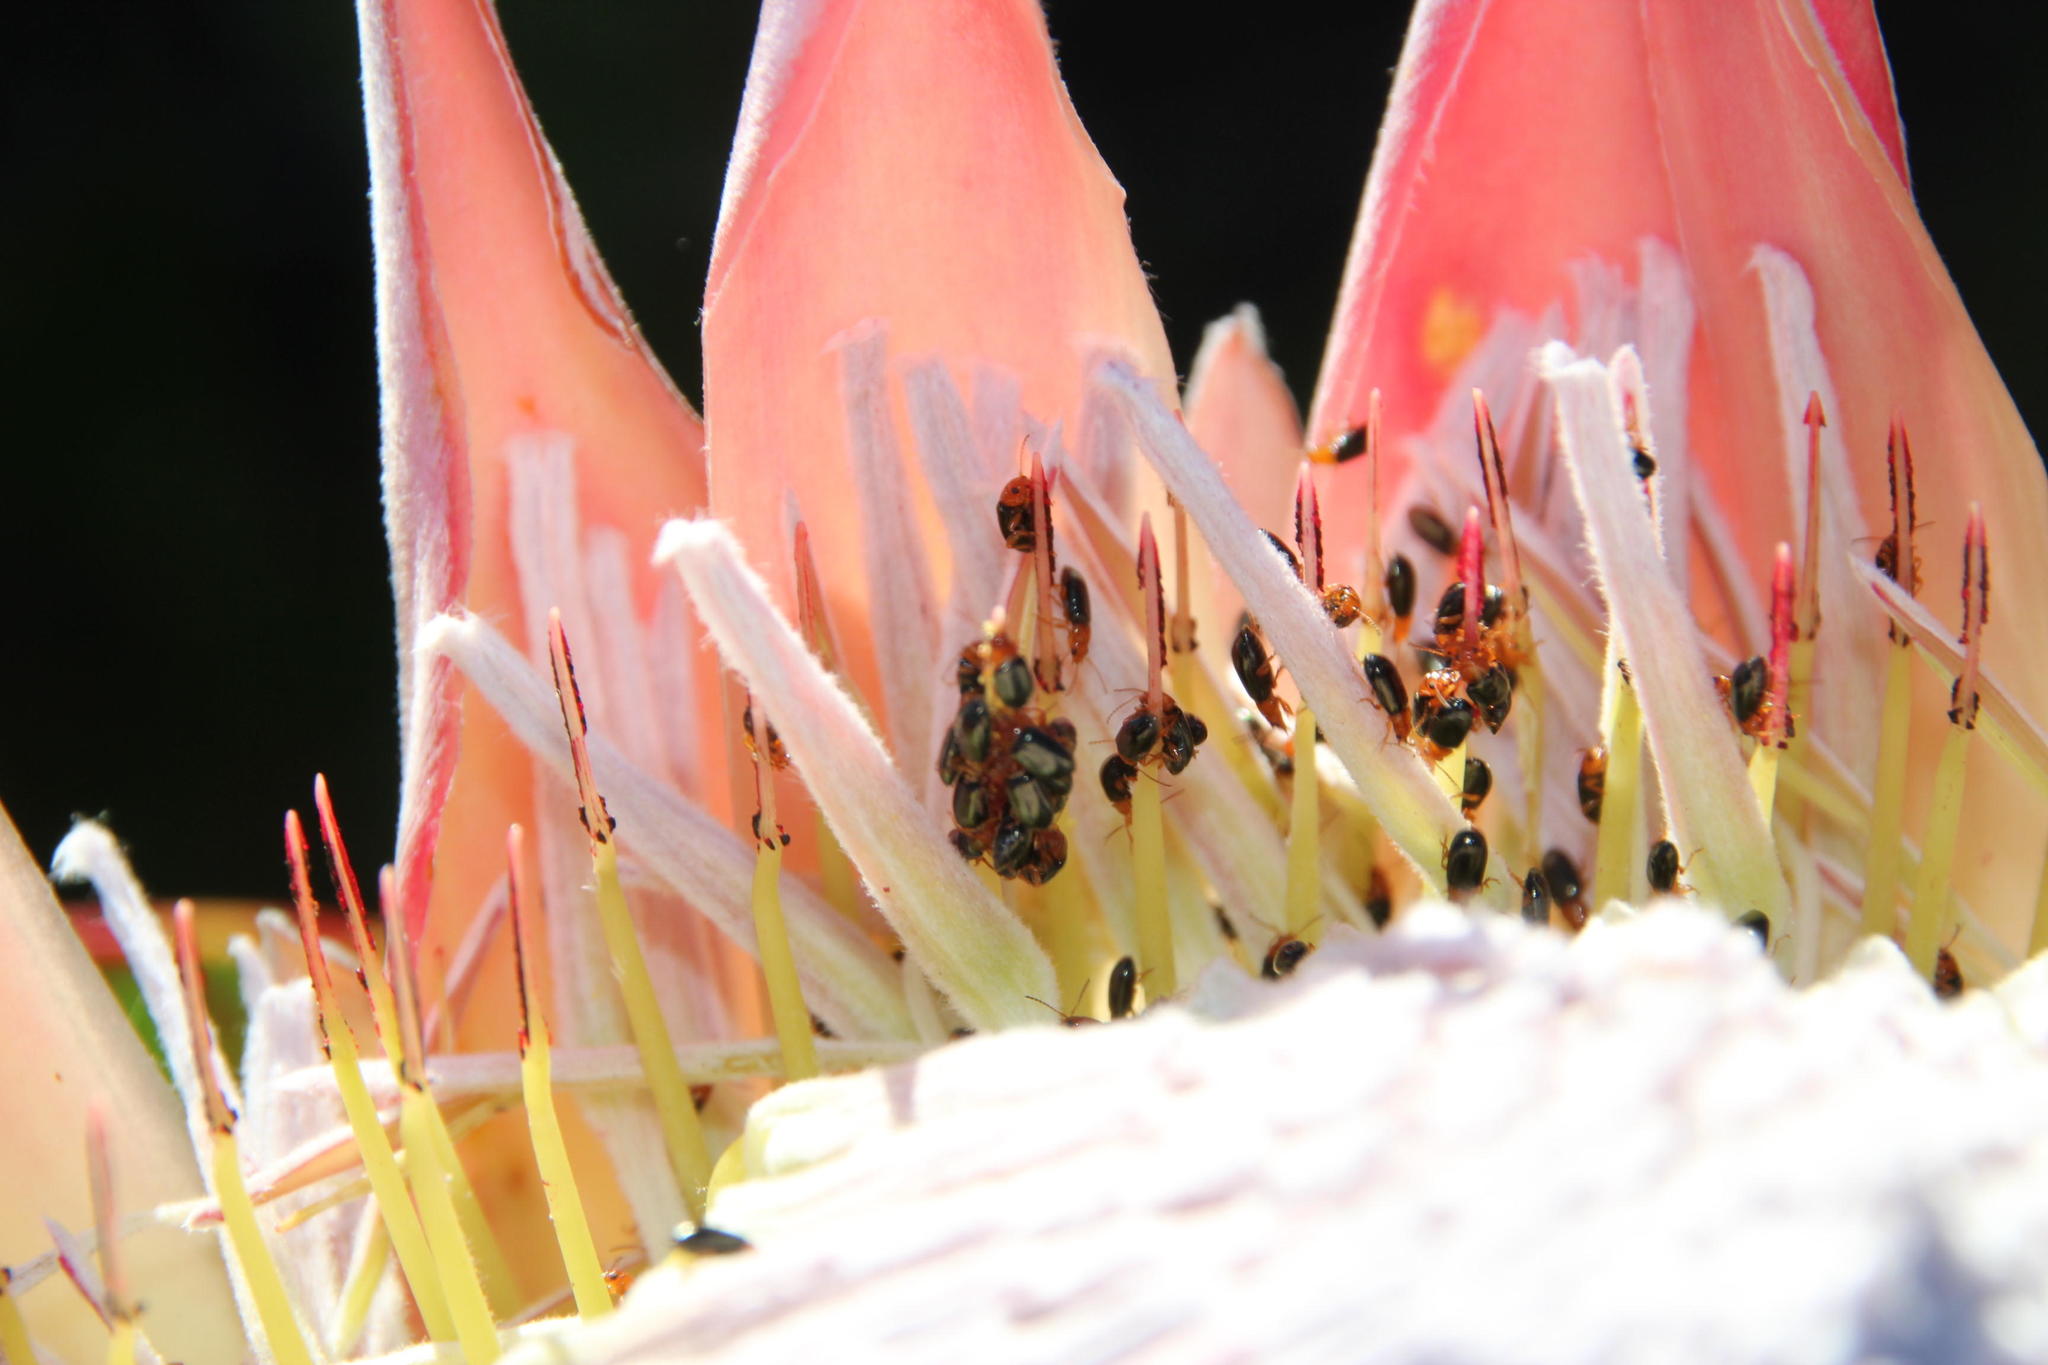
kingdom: Plantae
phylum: Tracheophyta
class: Magnoliopsida
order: Proteales
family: Proteaceae
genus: Protea
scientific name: Protea cynaroides
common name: King protea
